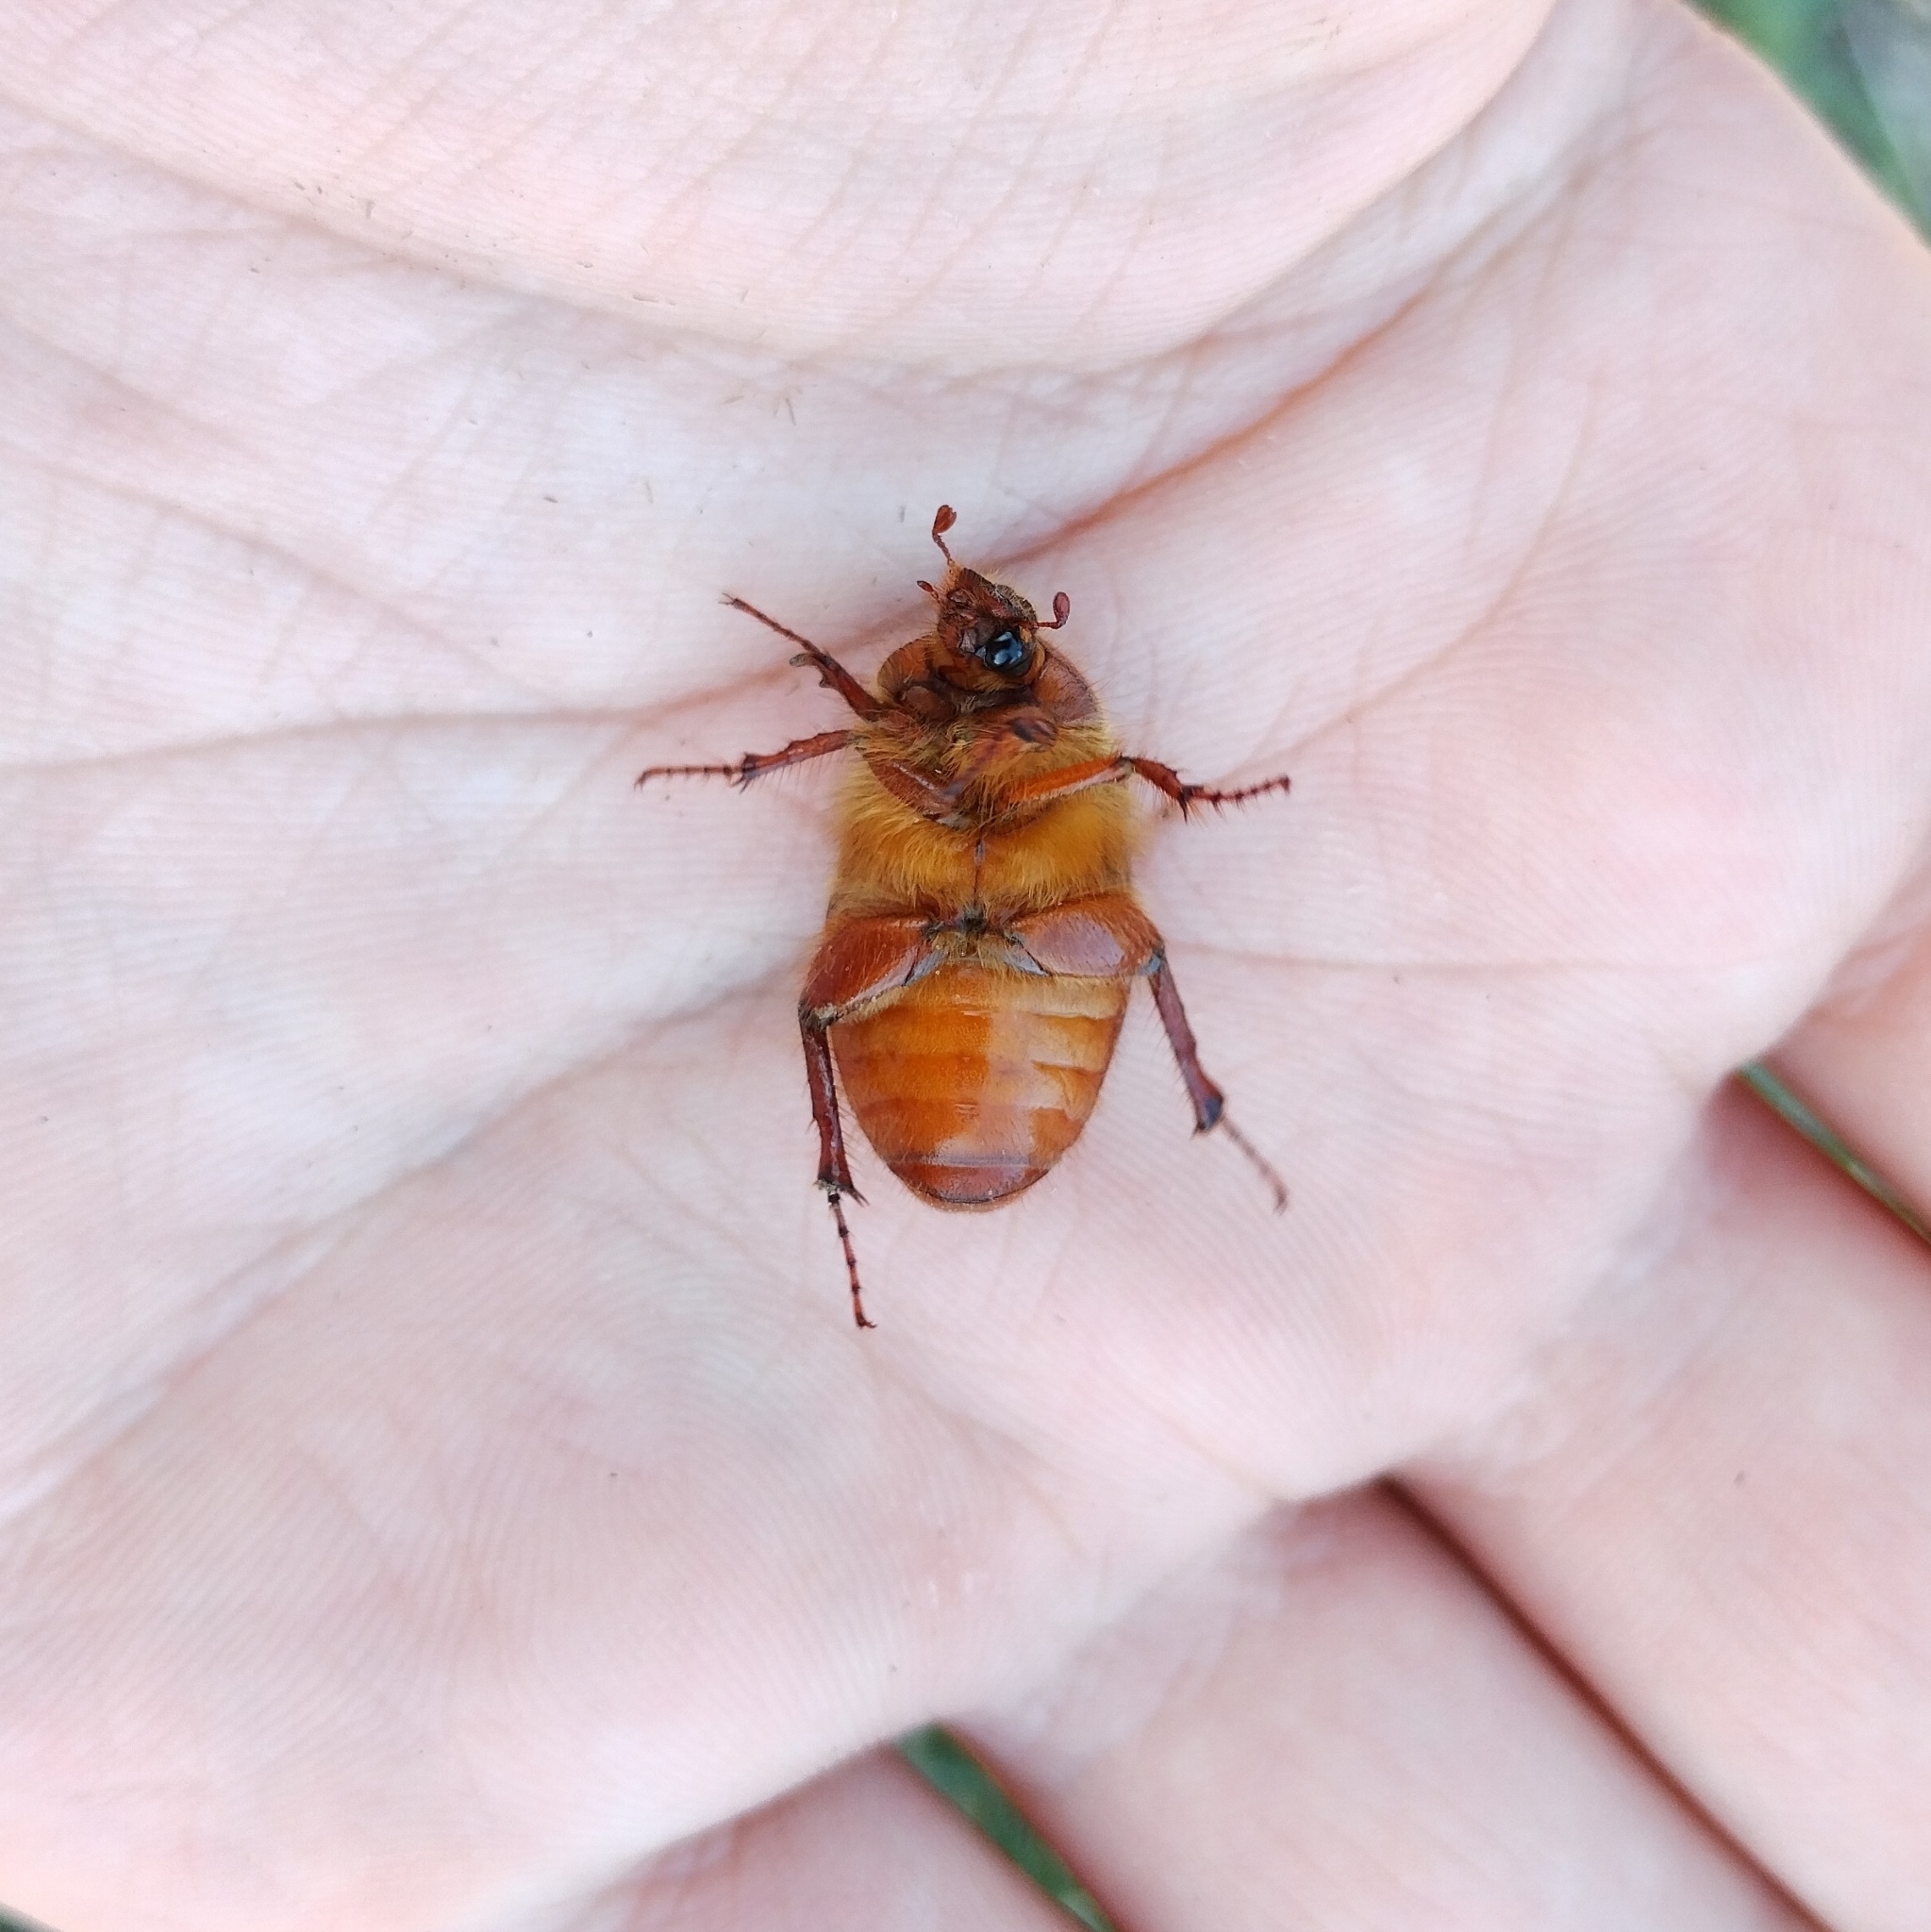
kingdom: Animalia
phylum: Arthropoda
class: Insecta
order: Coleoptera
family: Scarabaeidae
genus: Holochelus
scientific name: Holochelus aequinoctialis
